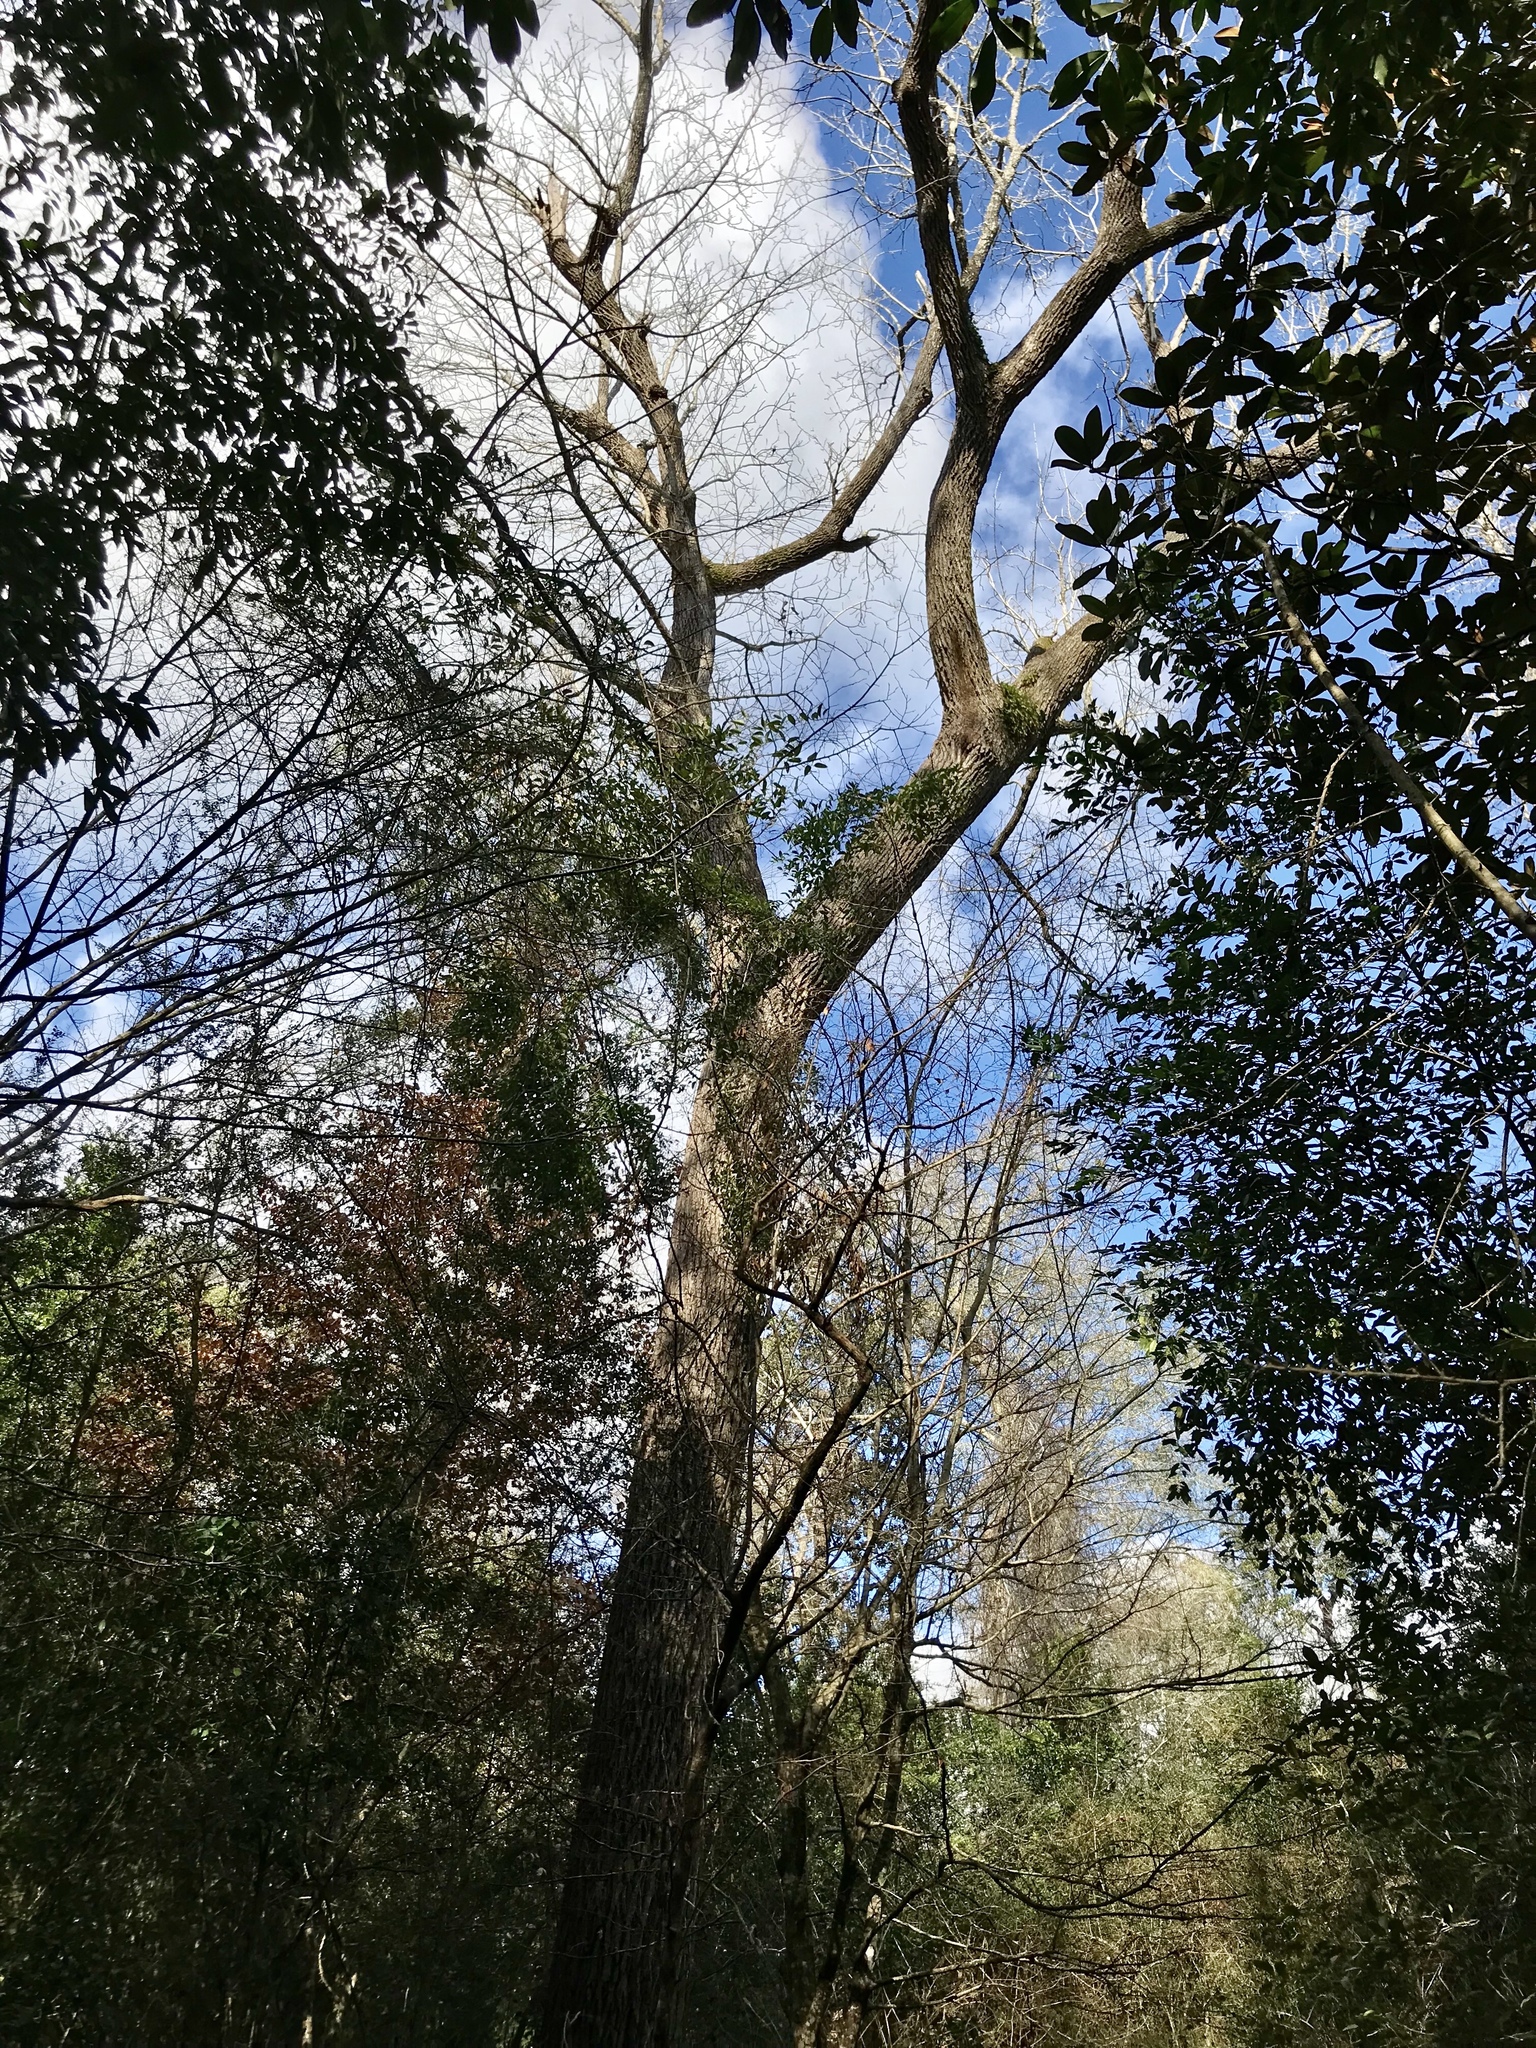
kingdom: Plantae
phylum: Tracheophyta
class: Magnoliopsida
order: Lamiales
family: Oleaceae
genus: Fraxinus
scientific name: Fraxinus americana
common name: White ash
